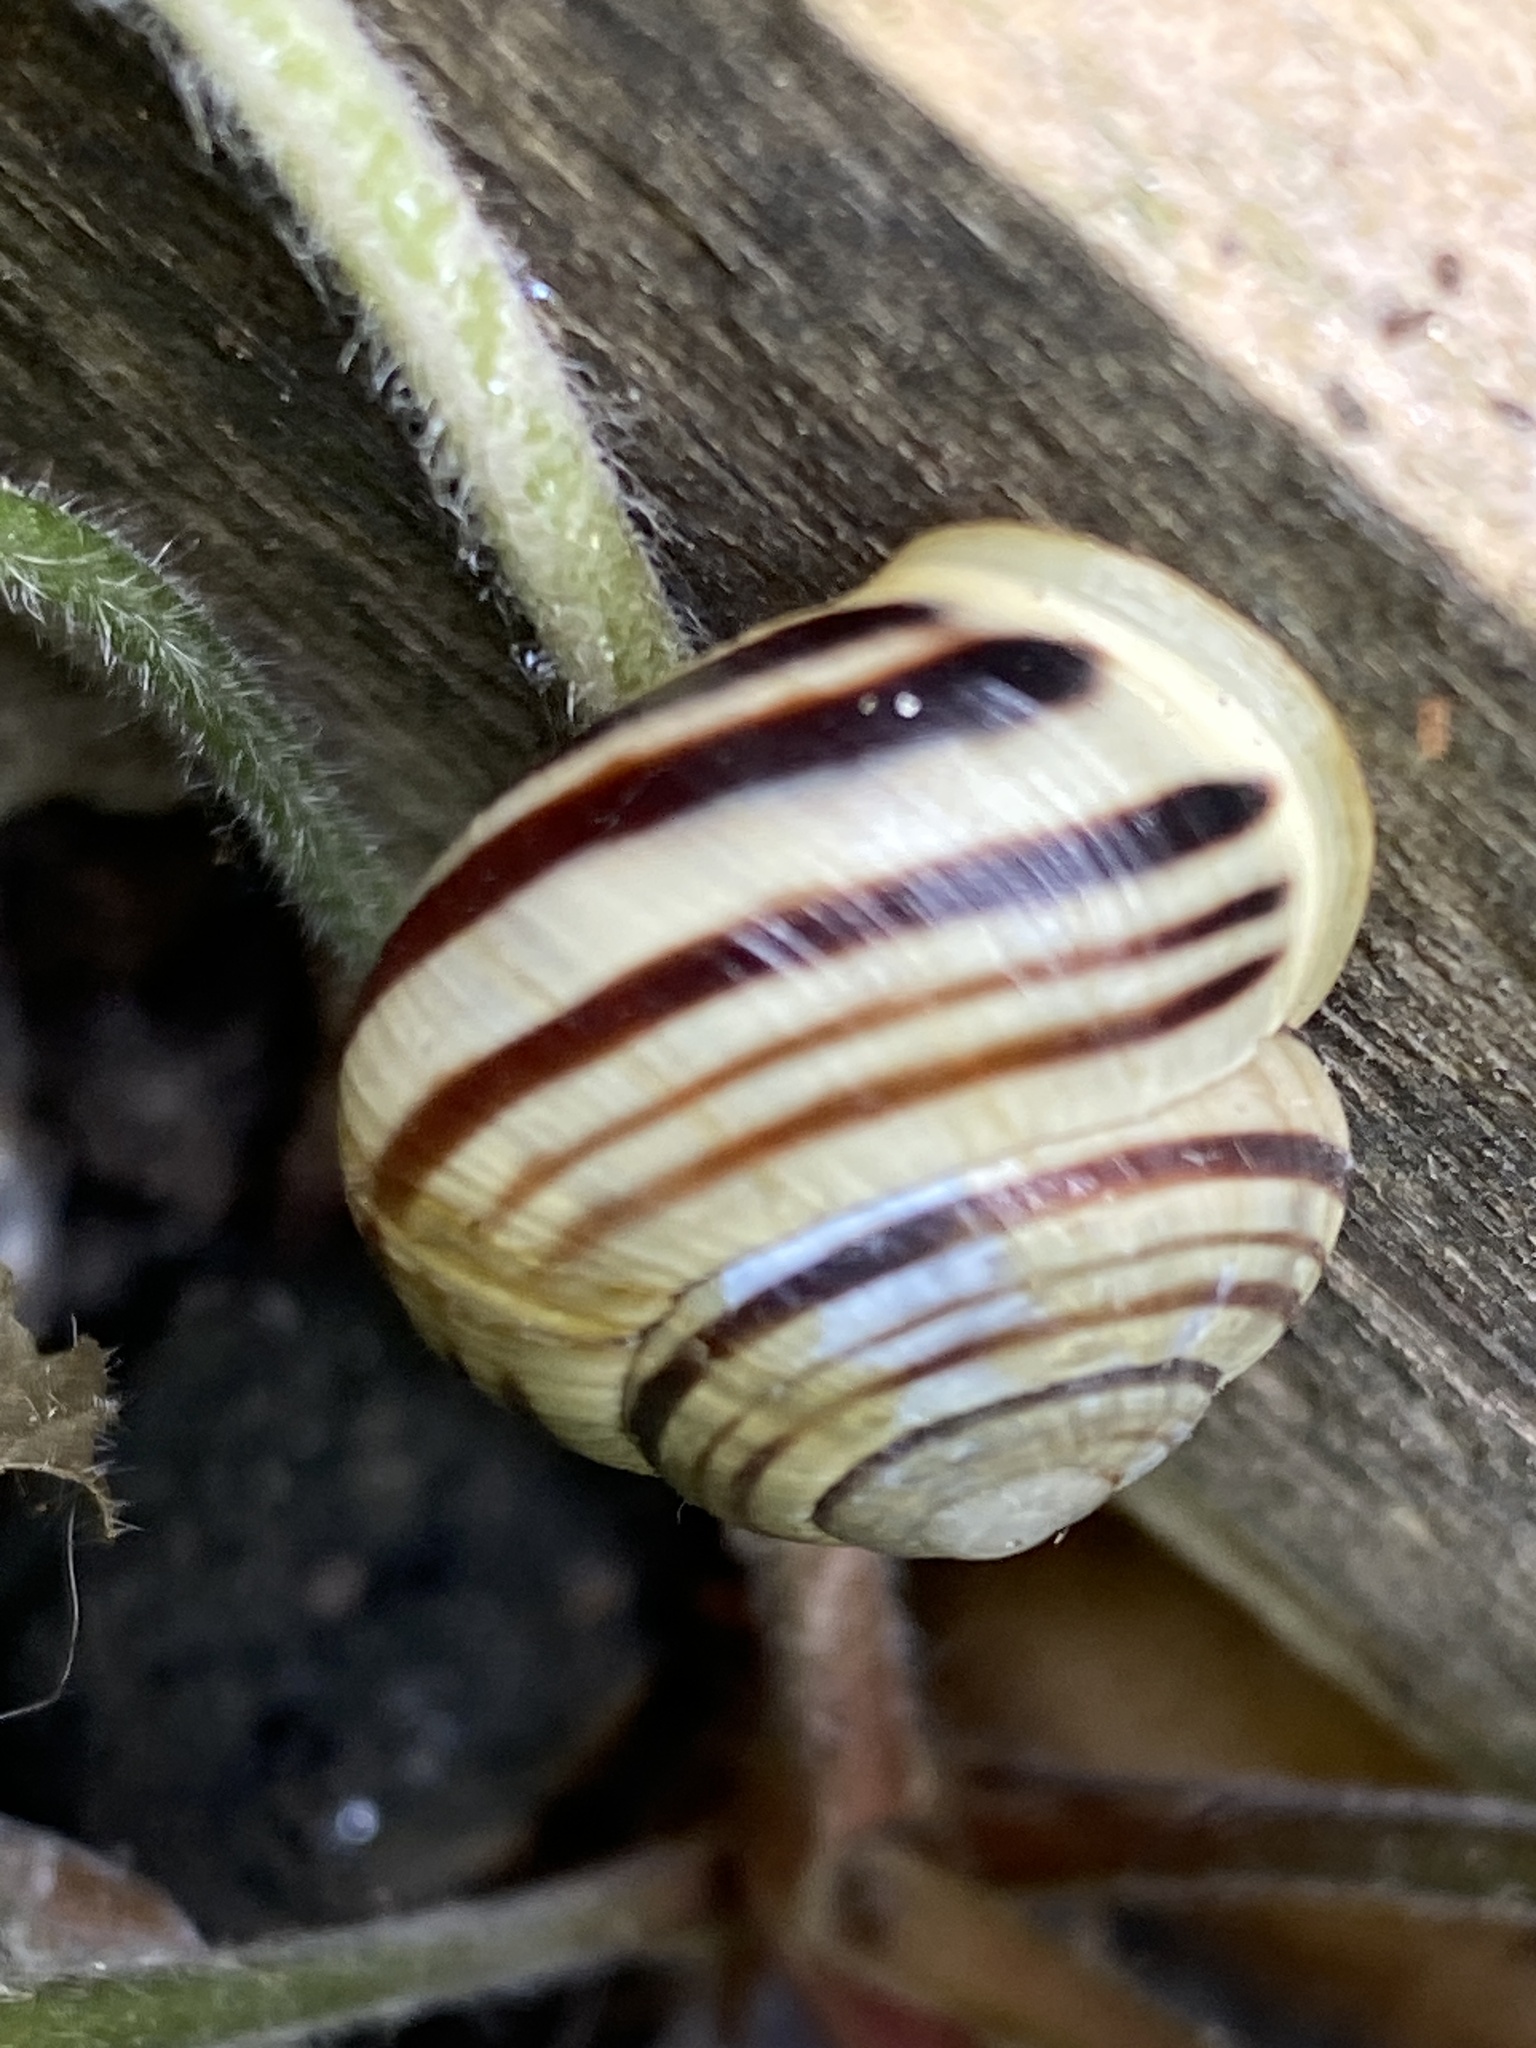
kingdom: Animalia
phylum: Mollusca
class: Gastropoda
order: Stylommatophora
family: Helicidae
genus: Cepaea
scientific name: Cepaea hortensis
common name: White-lip gardensnail
